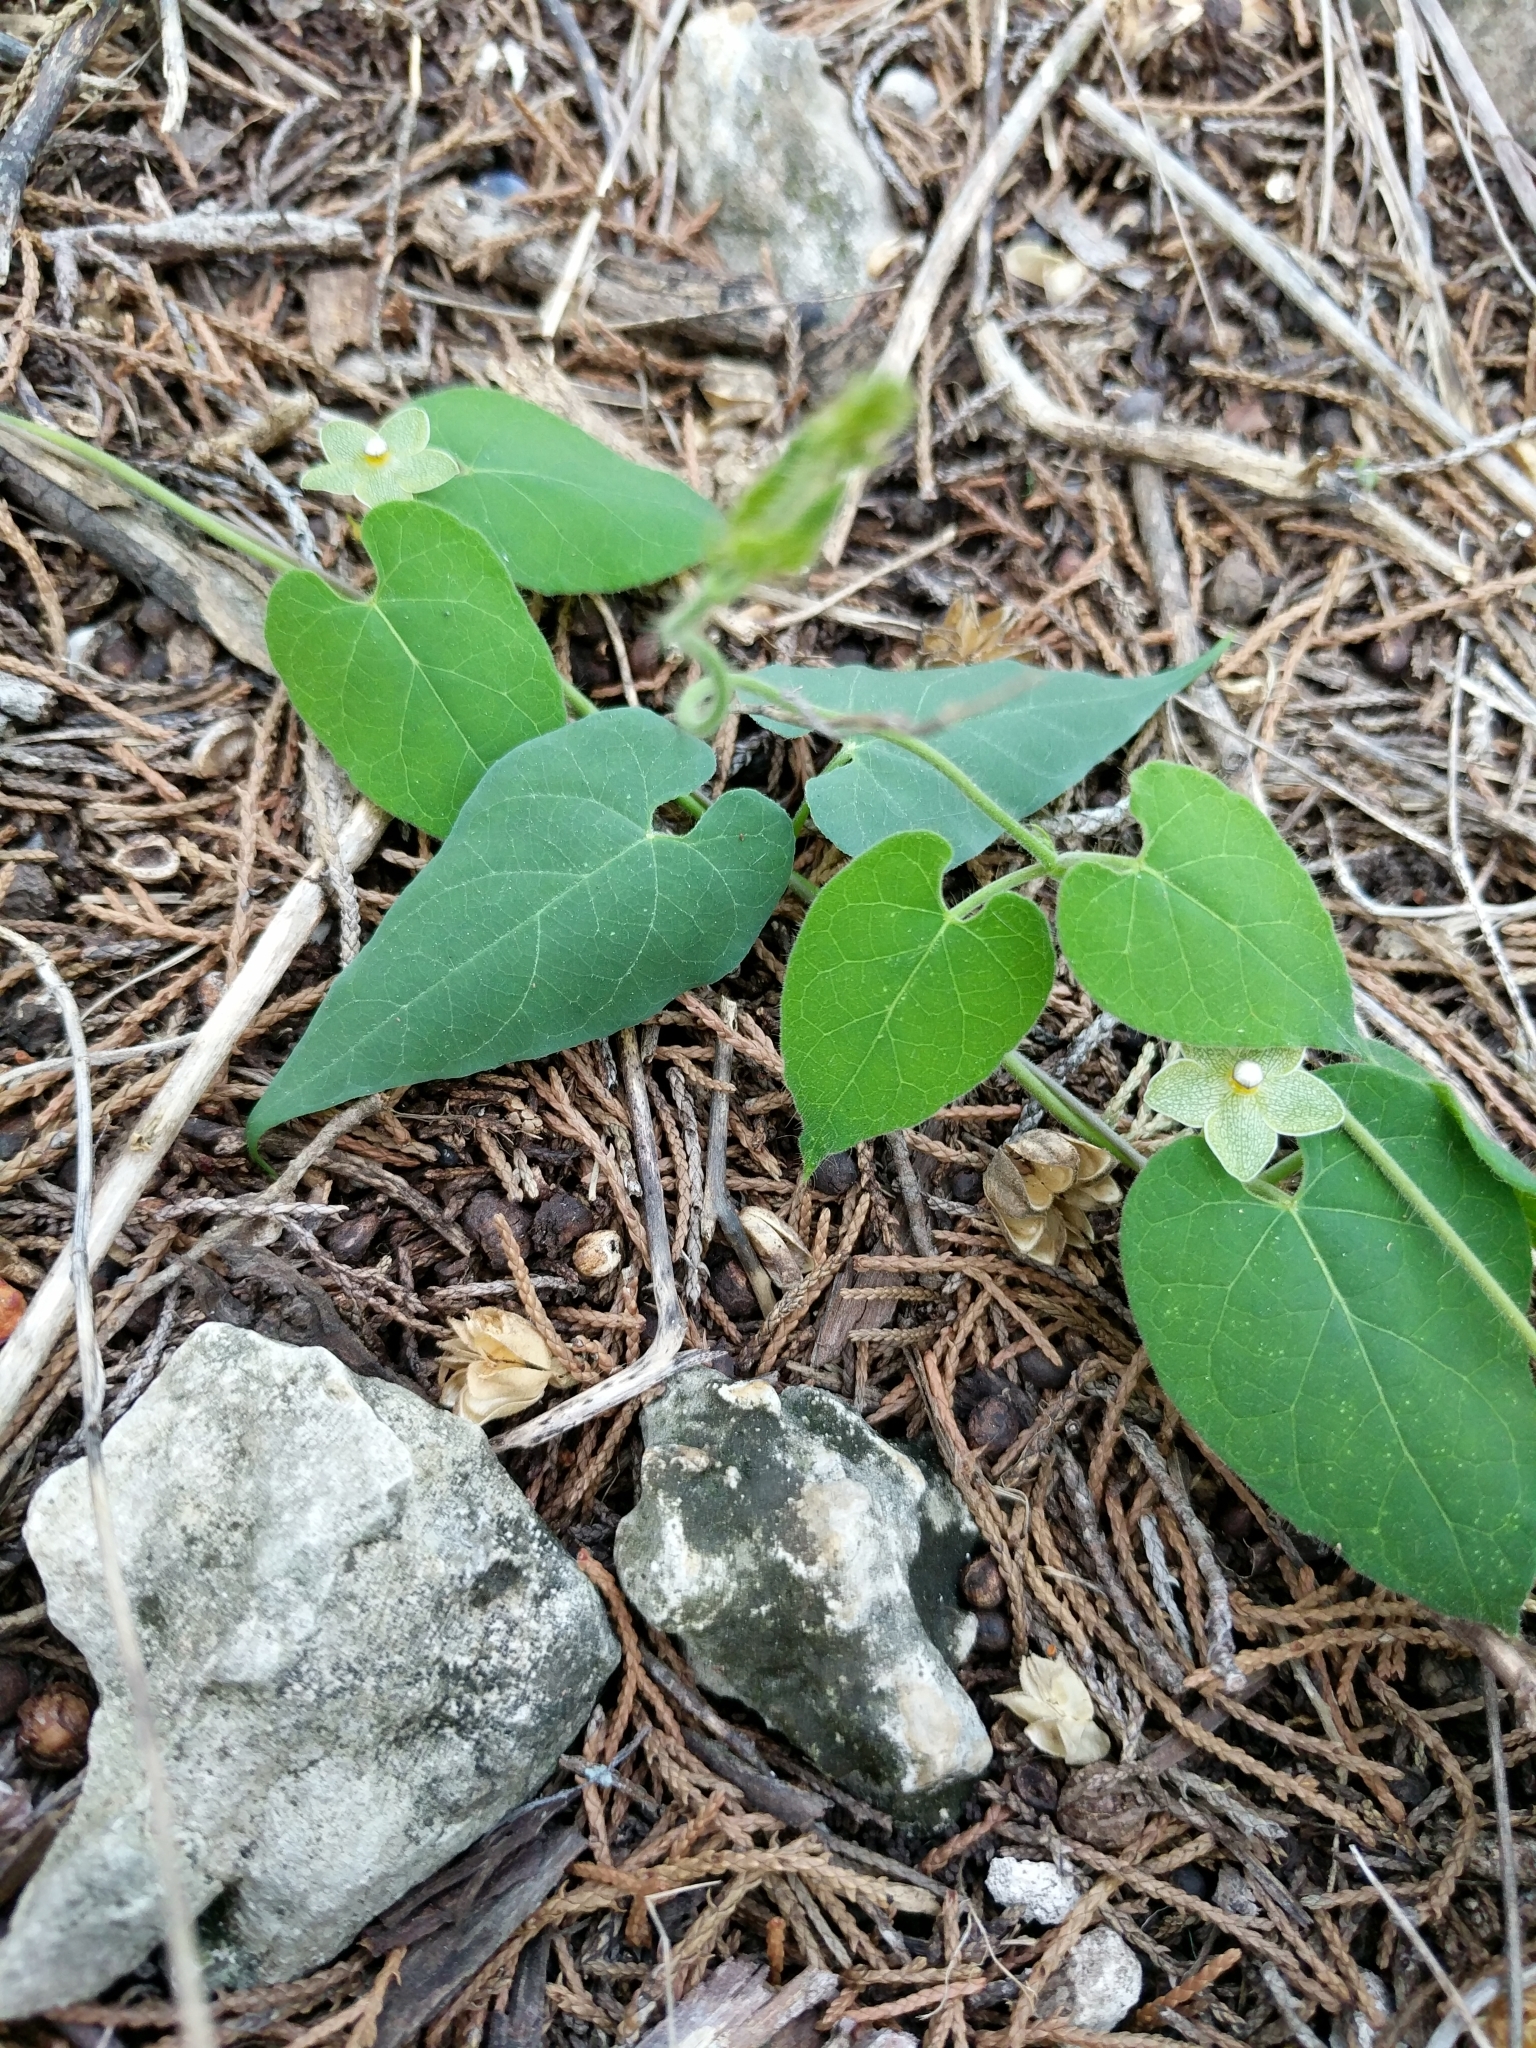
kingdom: Plantae
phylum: Tracheophyta
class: Magnoliopsida
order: Gentianales
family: Apocynaceae
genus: Dictyanthus
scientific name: Dictyanthus reticulatus
